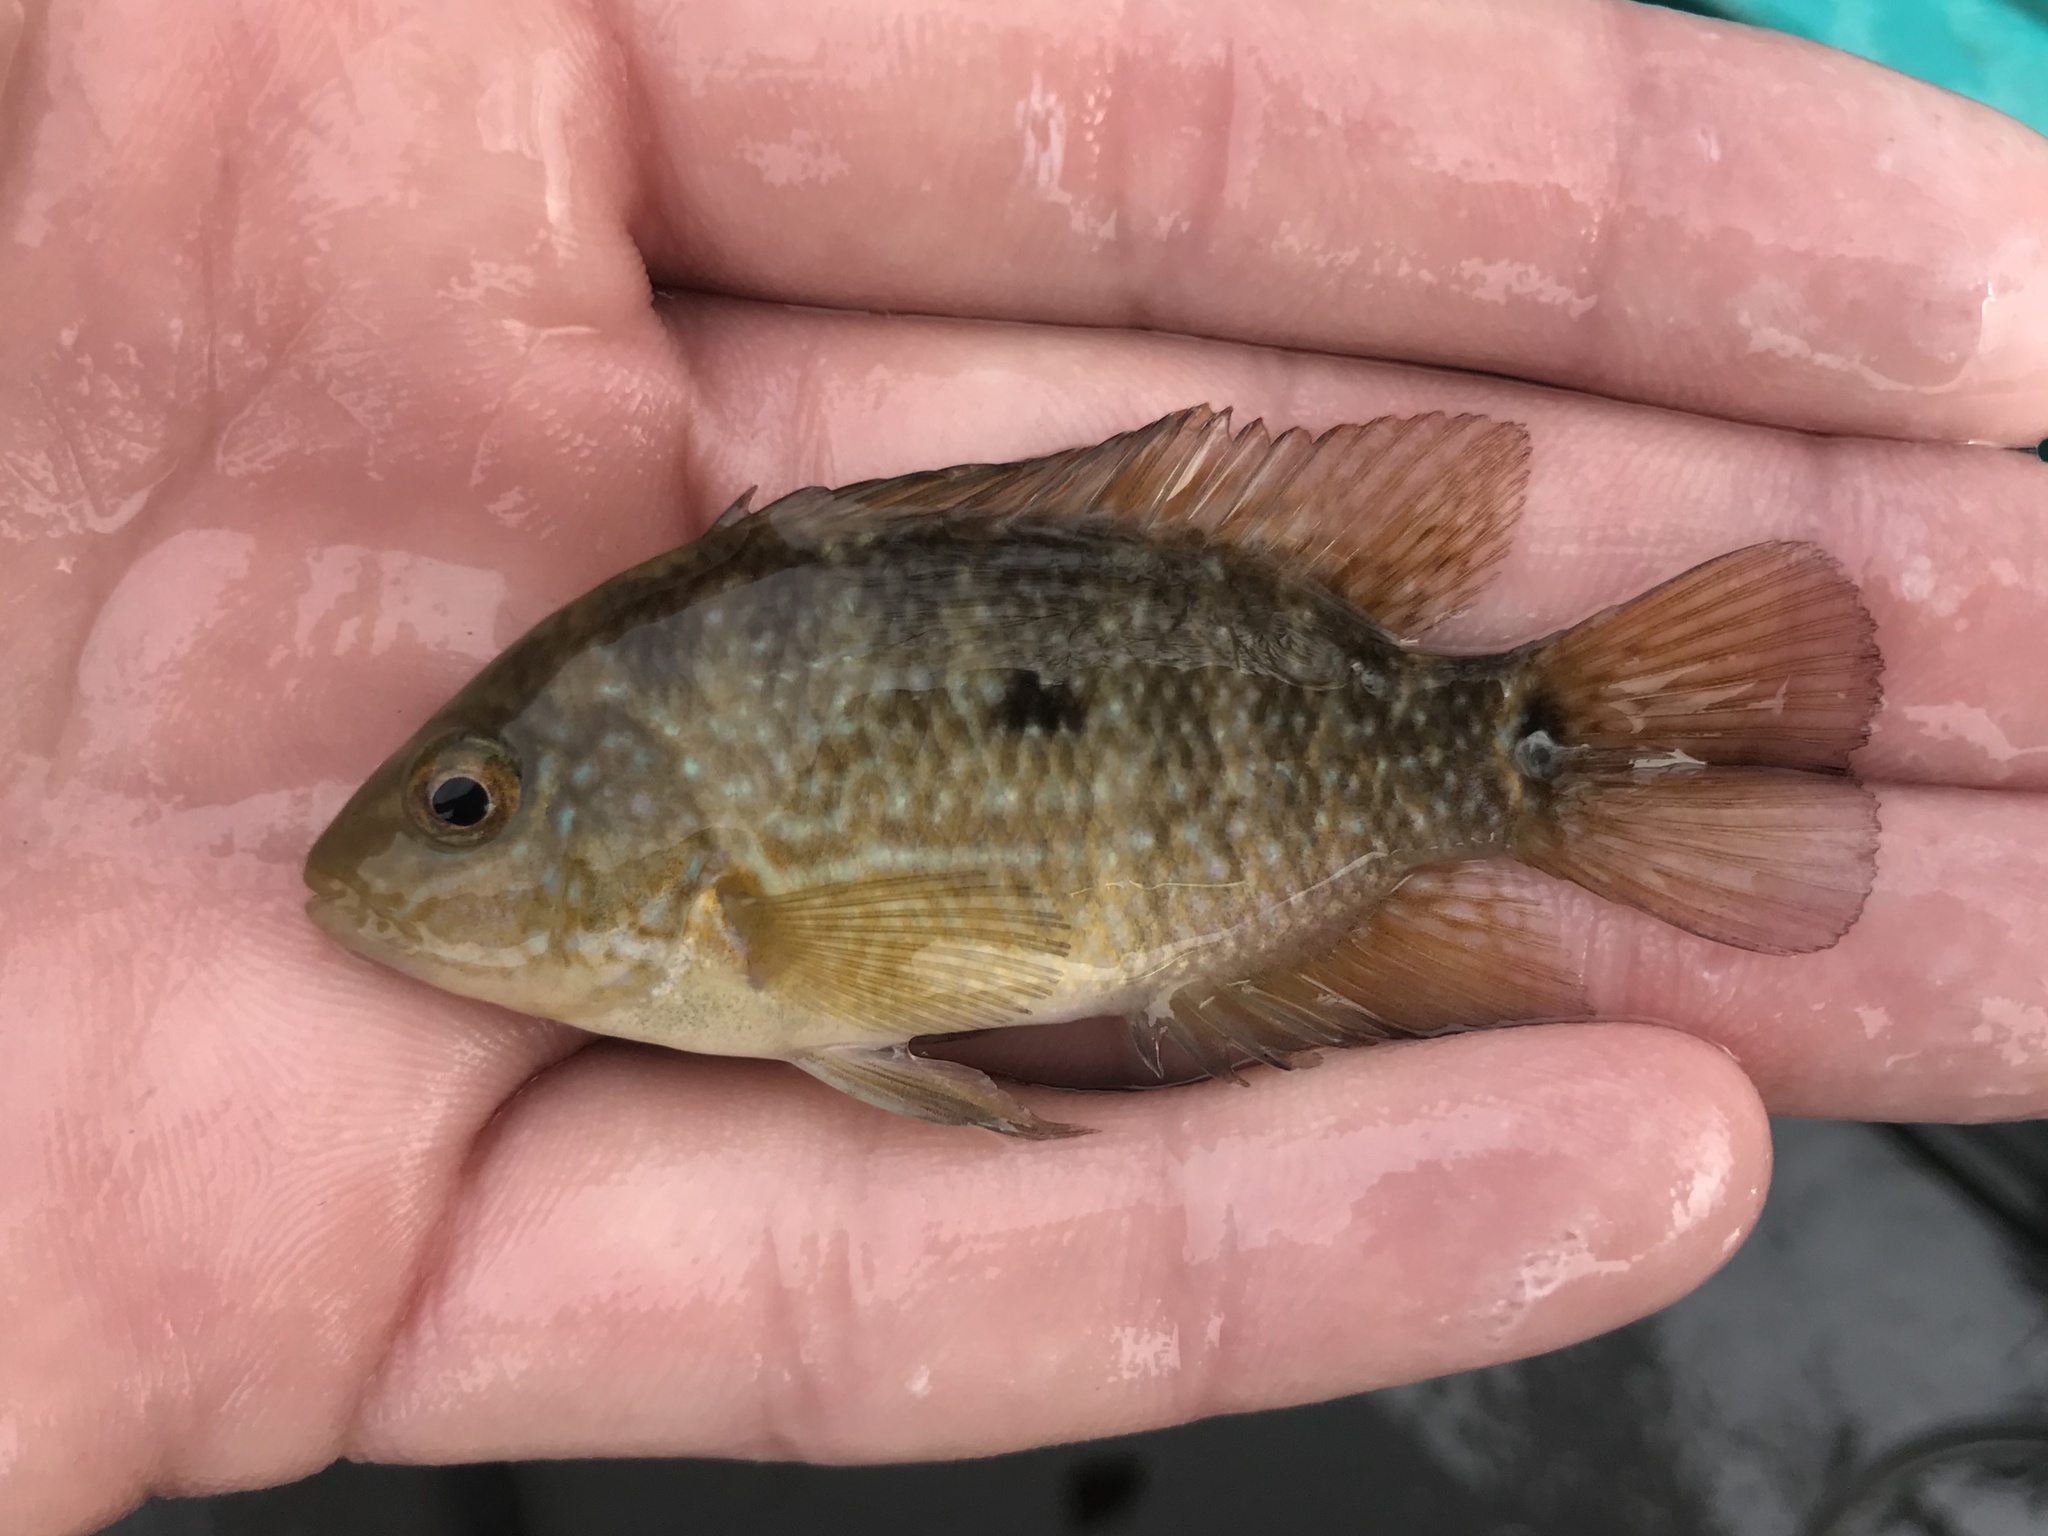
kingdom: Animalia
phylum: Chordata
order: Perciformes
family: Cichlidae
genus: Herichthys
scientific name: Herichthys cyanoguttatus
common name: Rio grande cichlid
